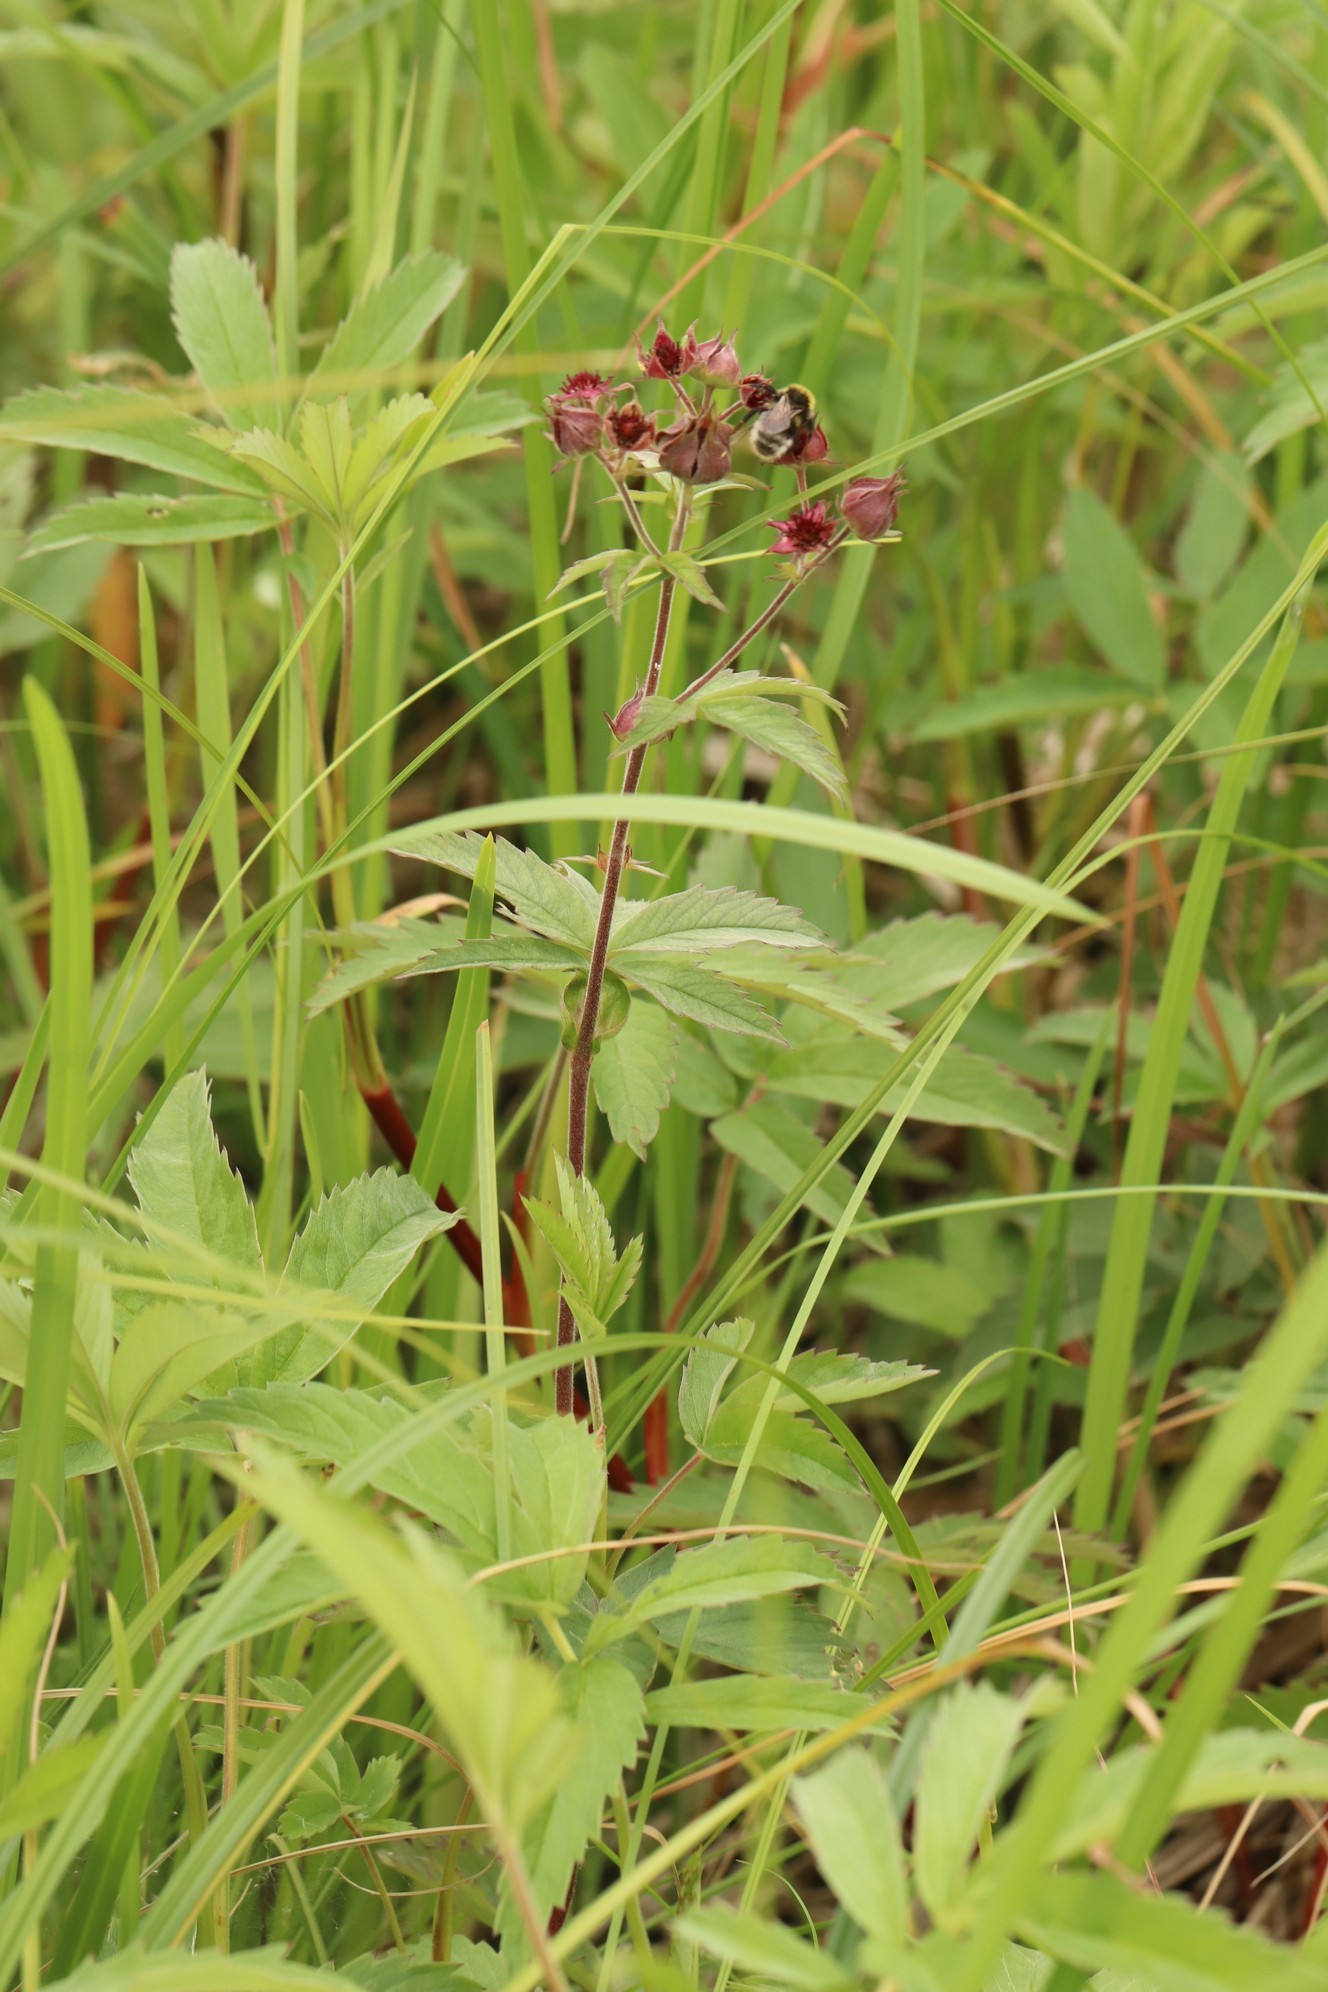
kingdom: Plantae
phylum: Tracheophyta
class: Magnoliopsida
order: Rosales
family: Rosaceae
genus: Comarum
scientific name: Comarum palustre
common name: Marsh cinquefoil
